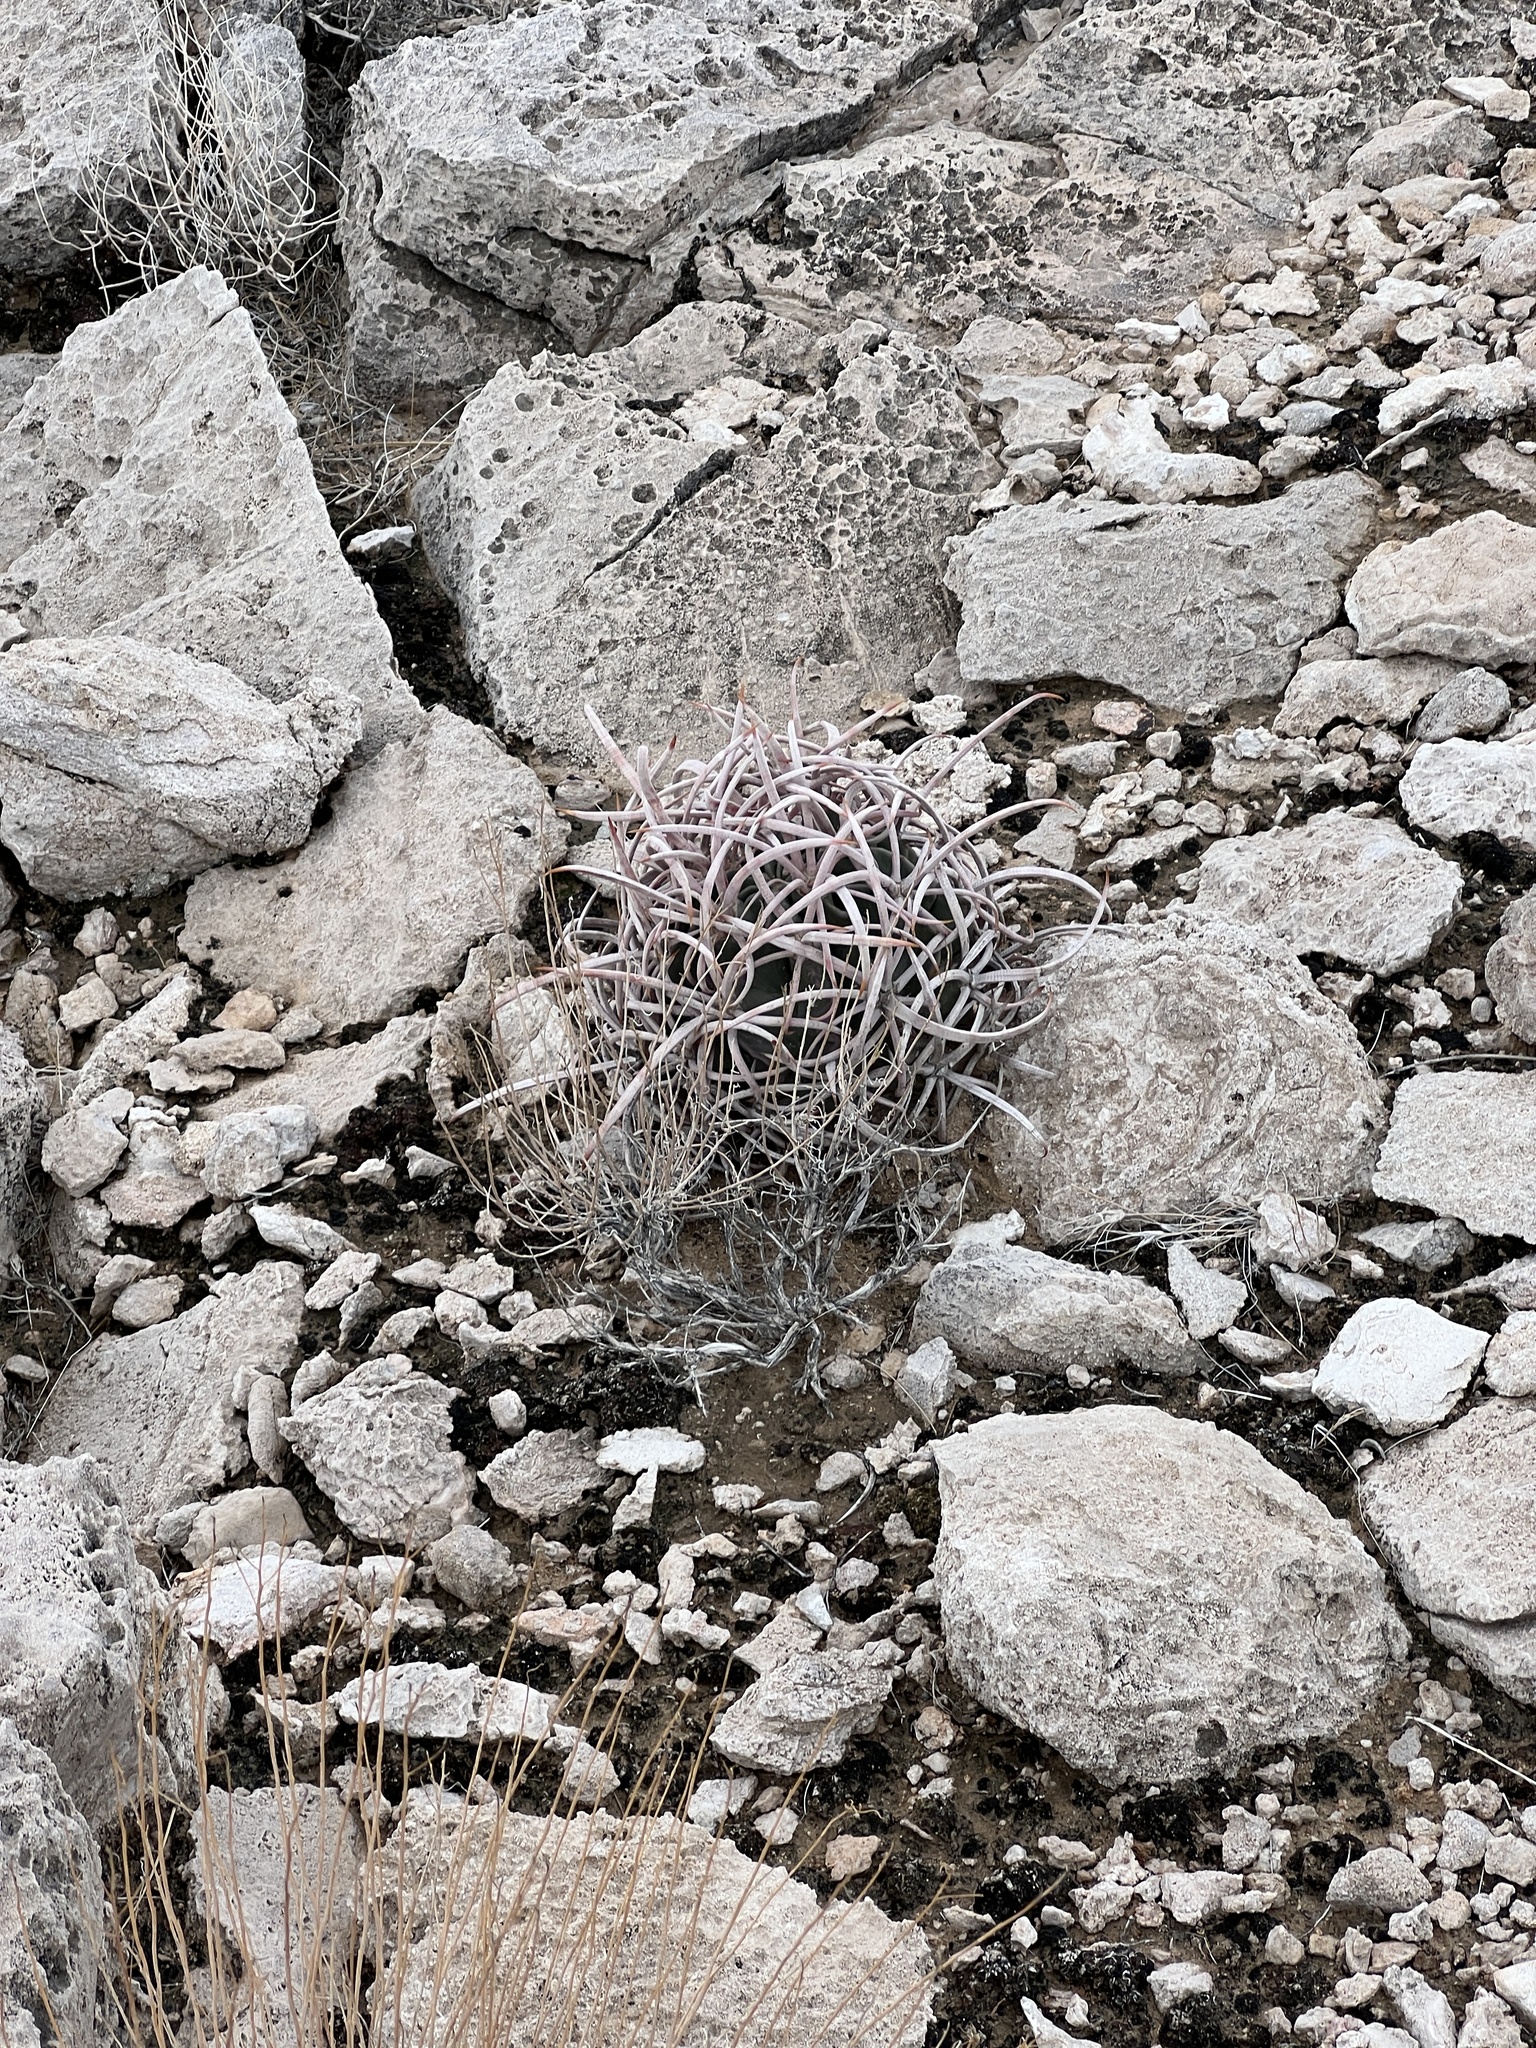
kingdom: Plantae
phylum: Tracheophyta
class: Magnoliopsida
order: Caryophyllales
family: Cactaceae
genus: Echinocactus
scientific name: Echinocactus polycephalus
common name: Cottontop cactus
